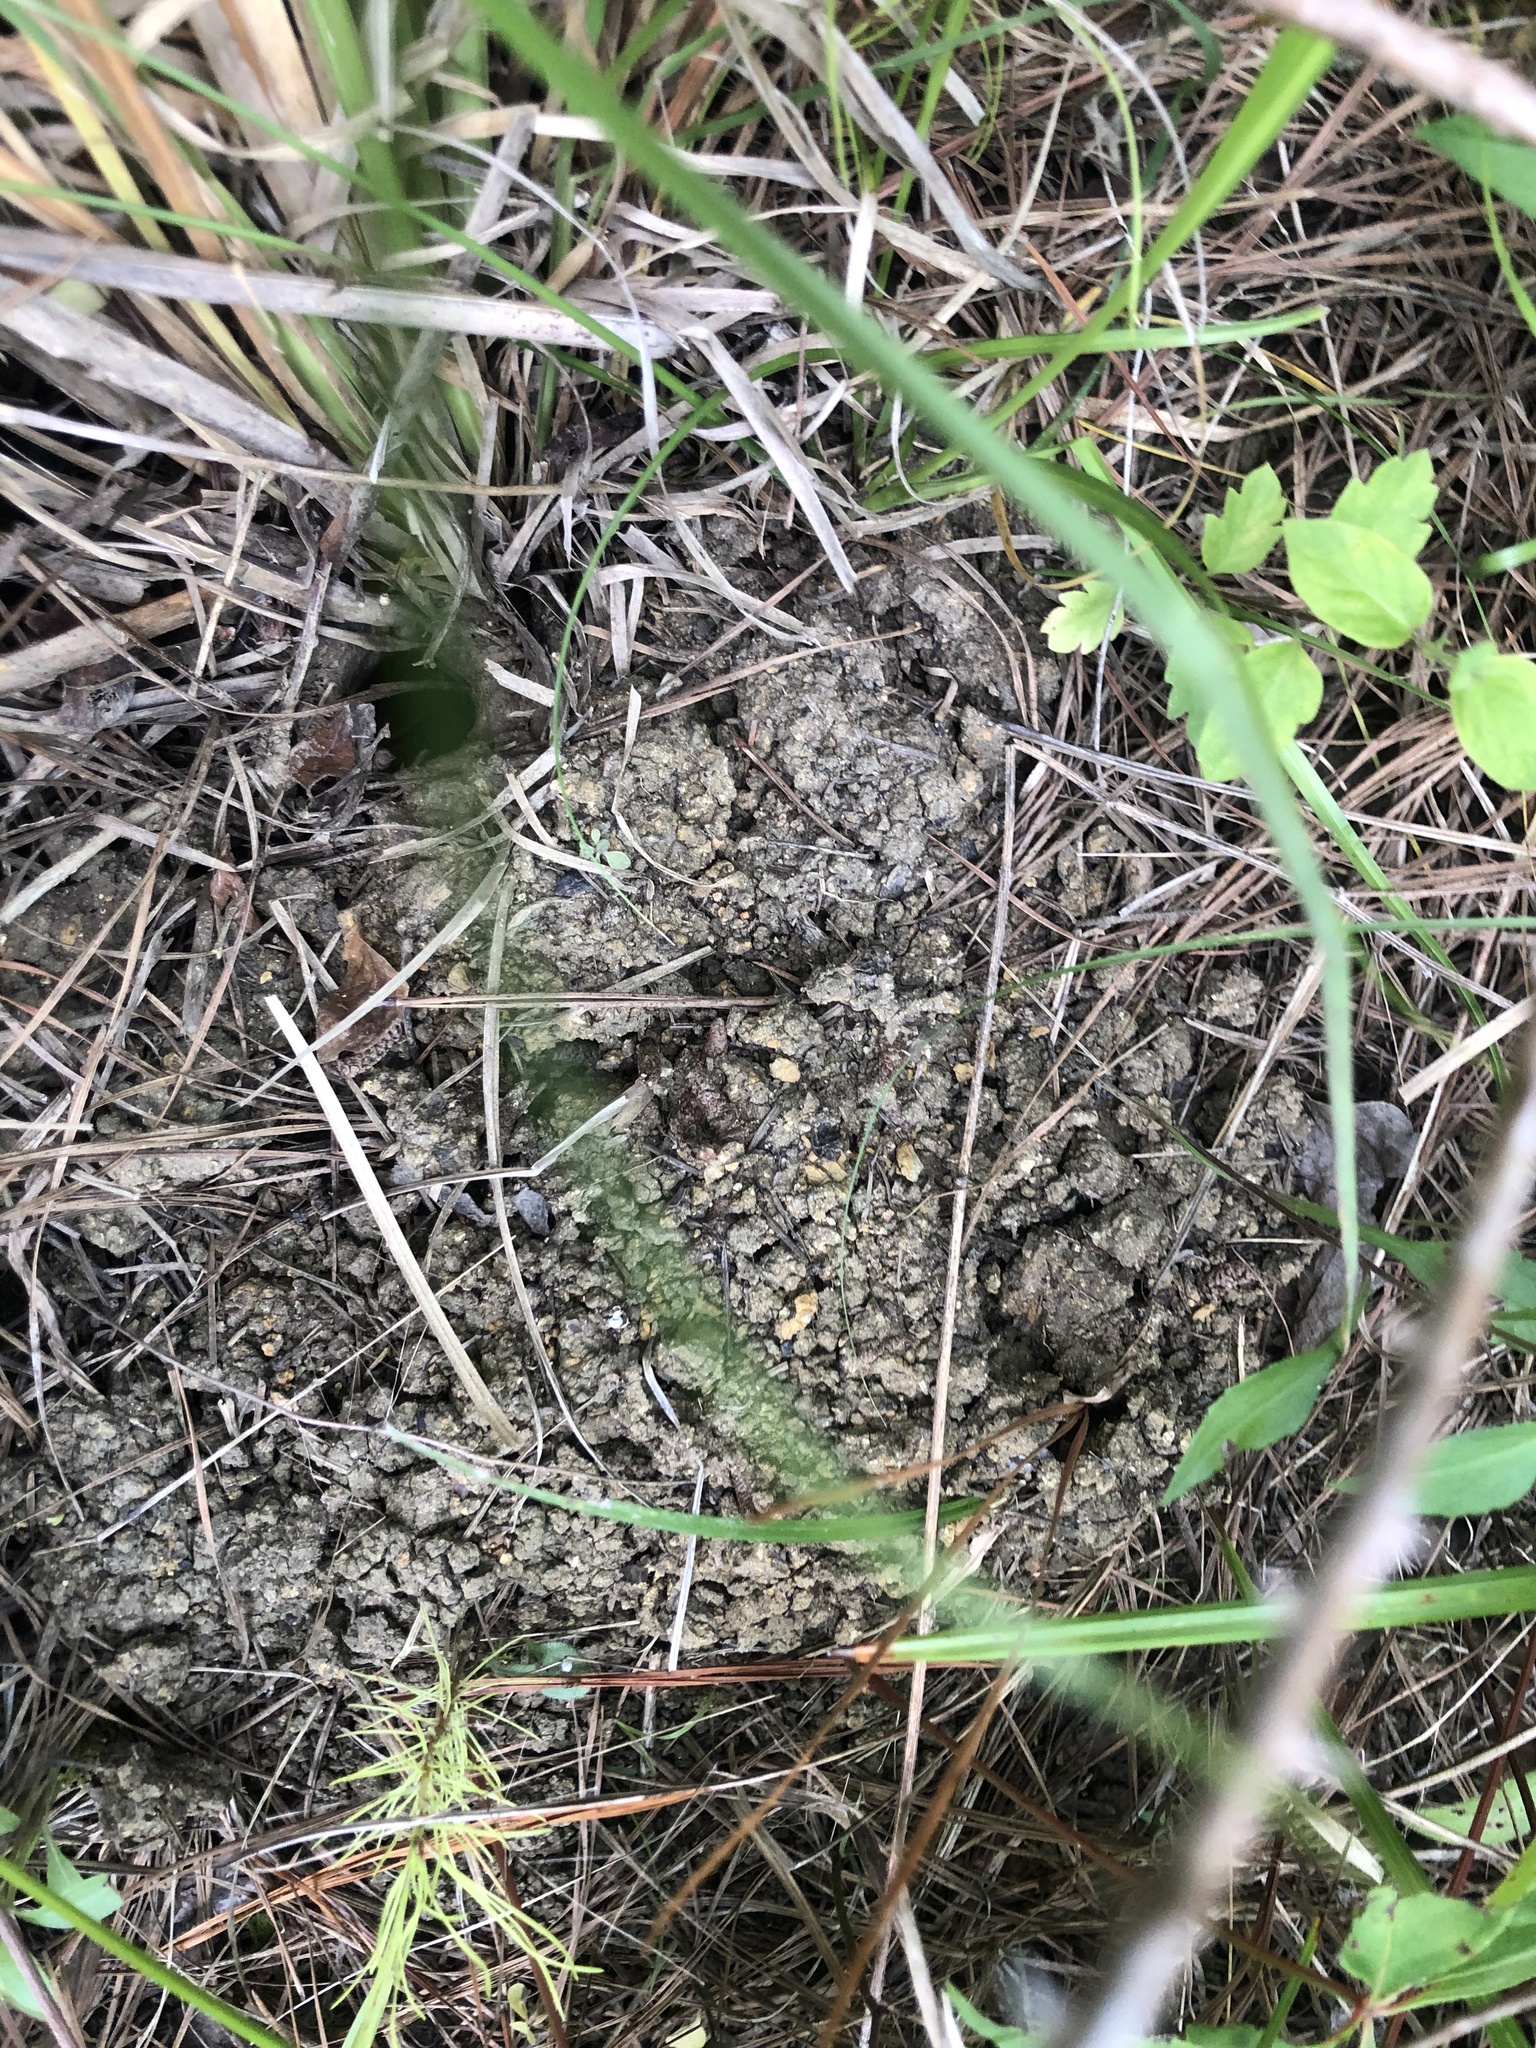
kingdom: Animalia
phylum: Arthropoda
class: Malacostraca
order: Decapoda
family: Cambaridae
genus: Procambarus
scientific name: Procambarus barbiger
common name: Jackson prairie crayfish
